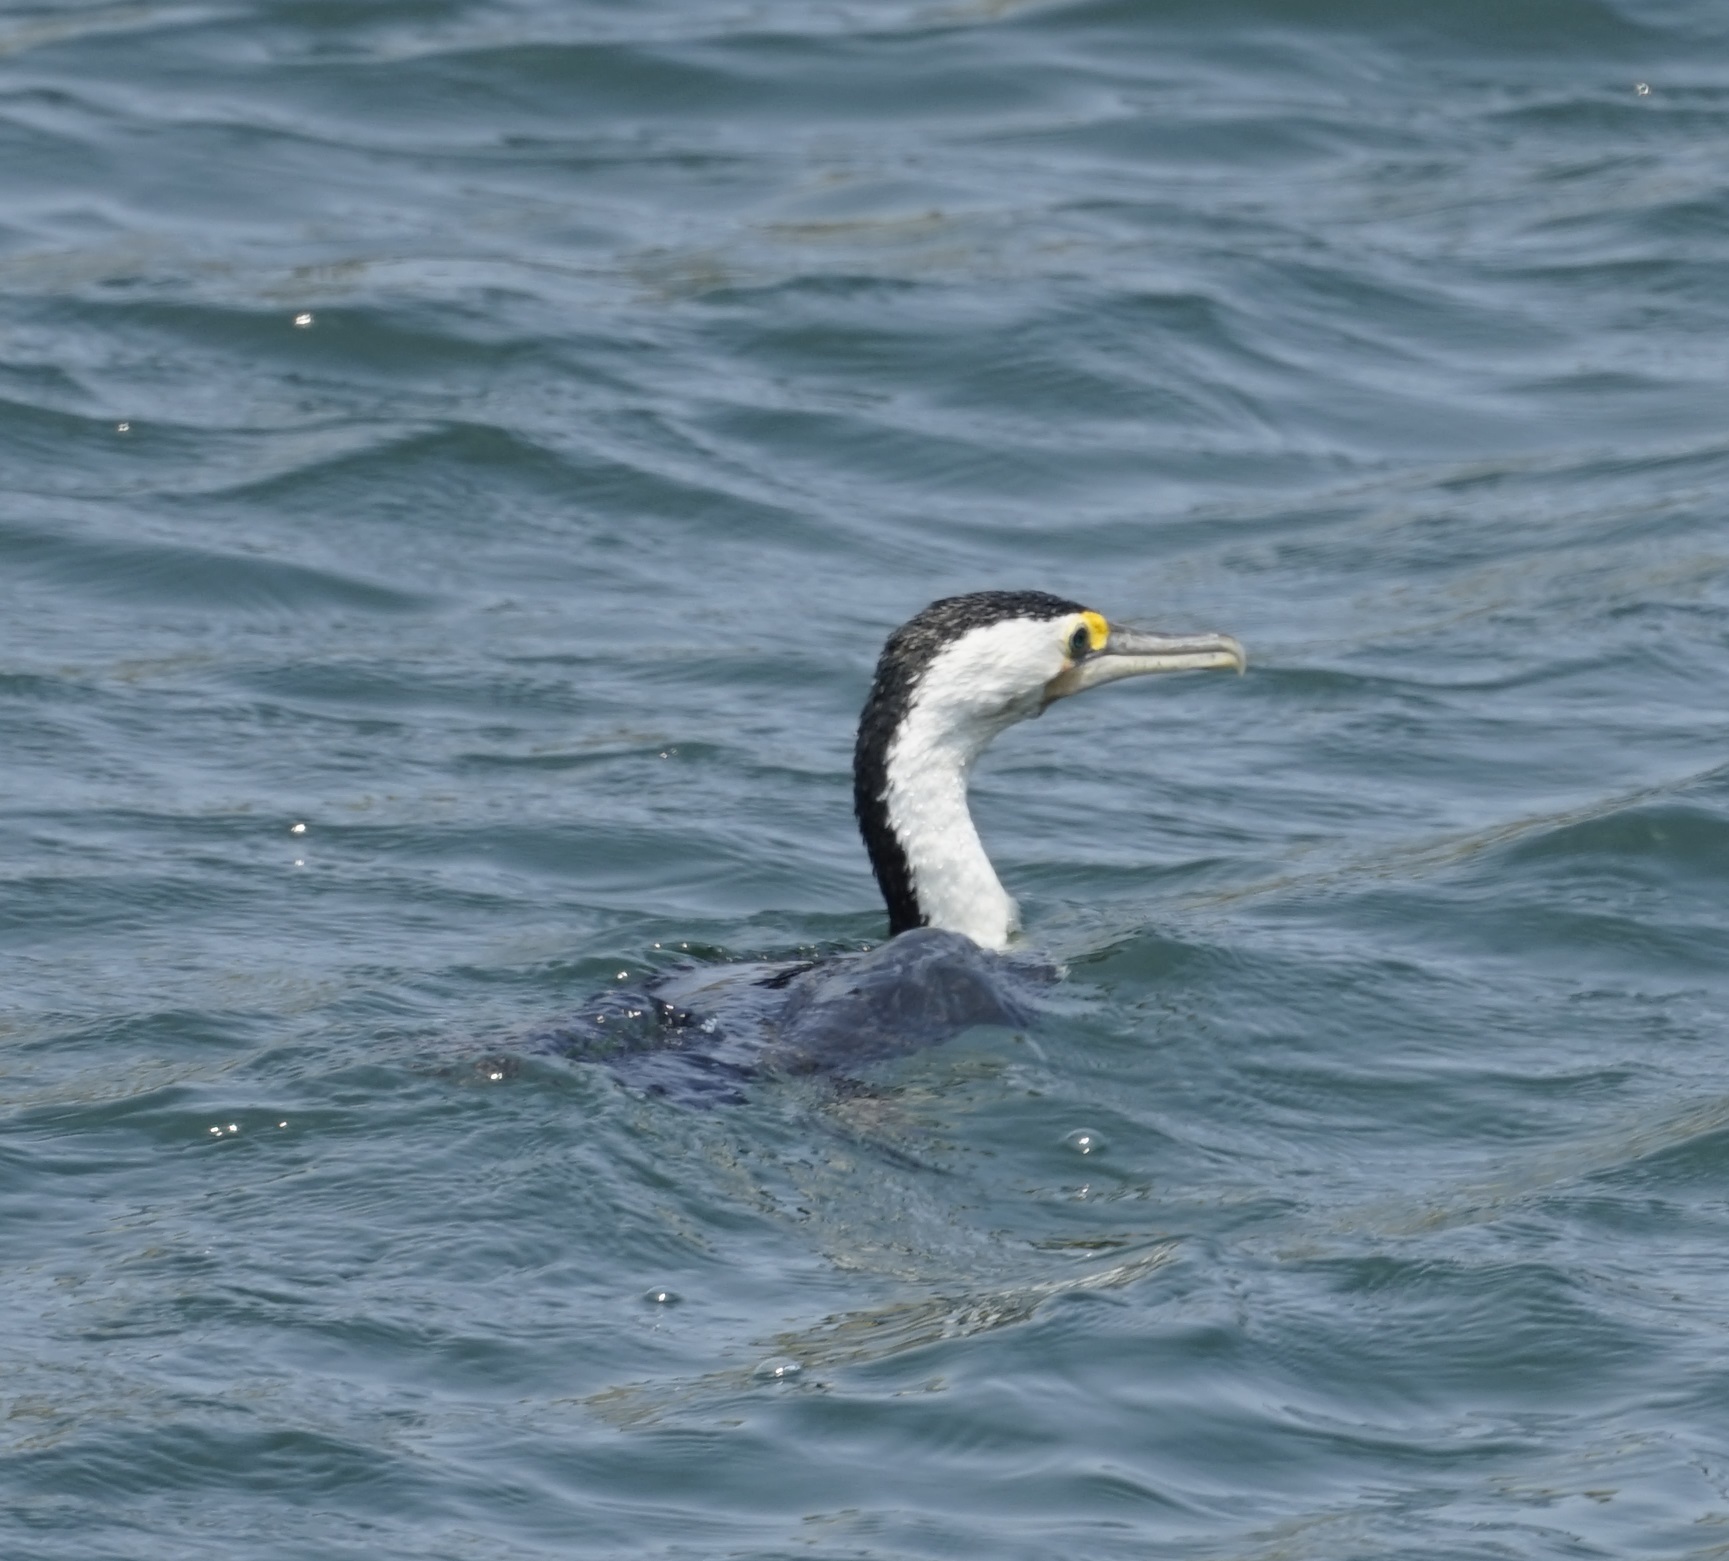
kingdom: Animalia
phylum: Chordata
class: Aves
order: Suliformes
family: Phalacrocoracidae
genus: Phalacrocorax
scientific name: Phalacrocorax varius
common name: Pied cormorant
